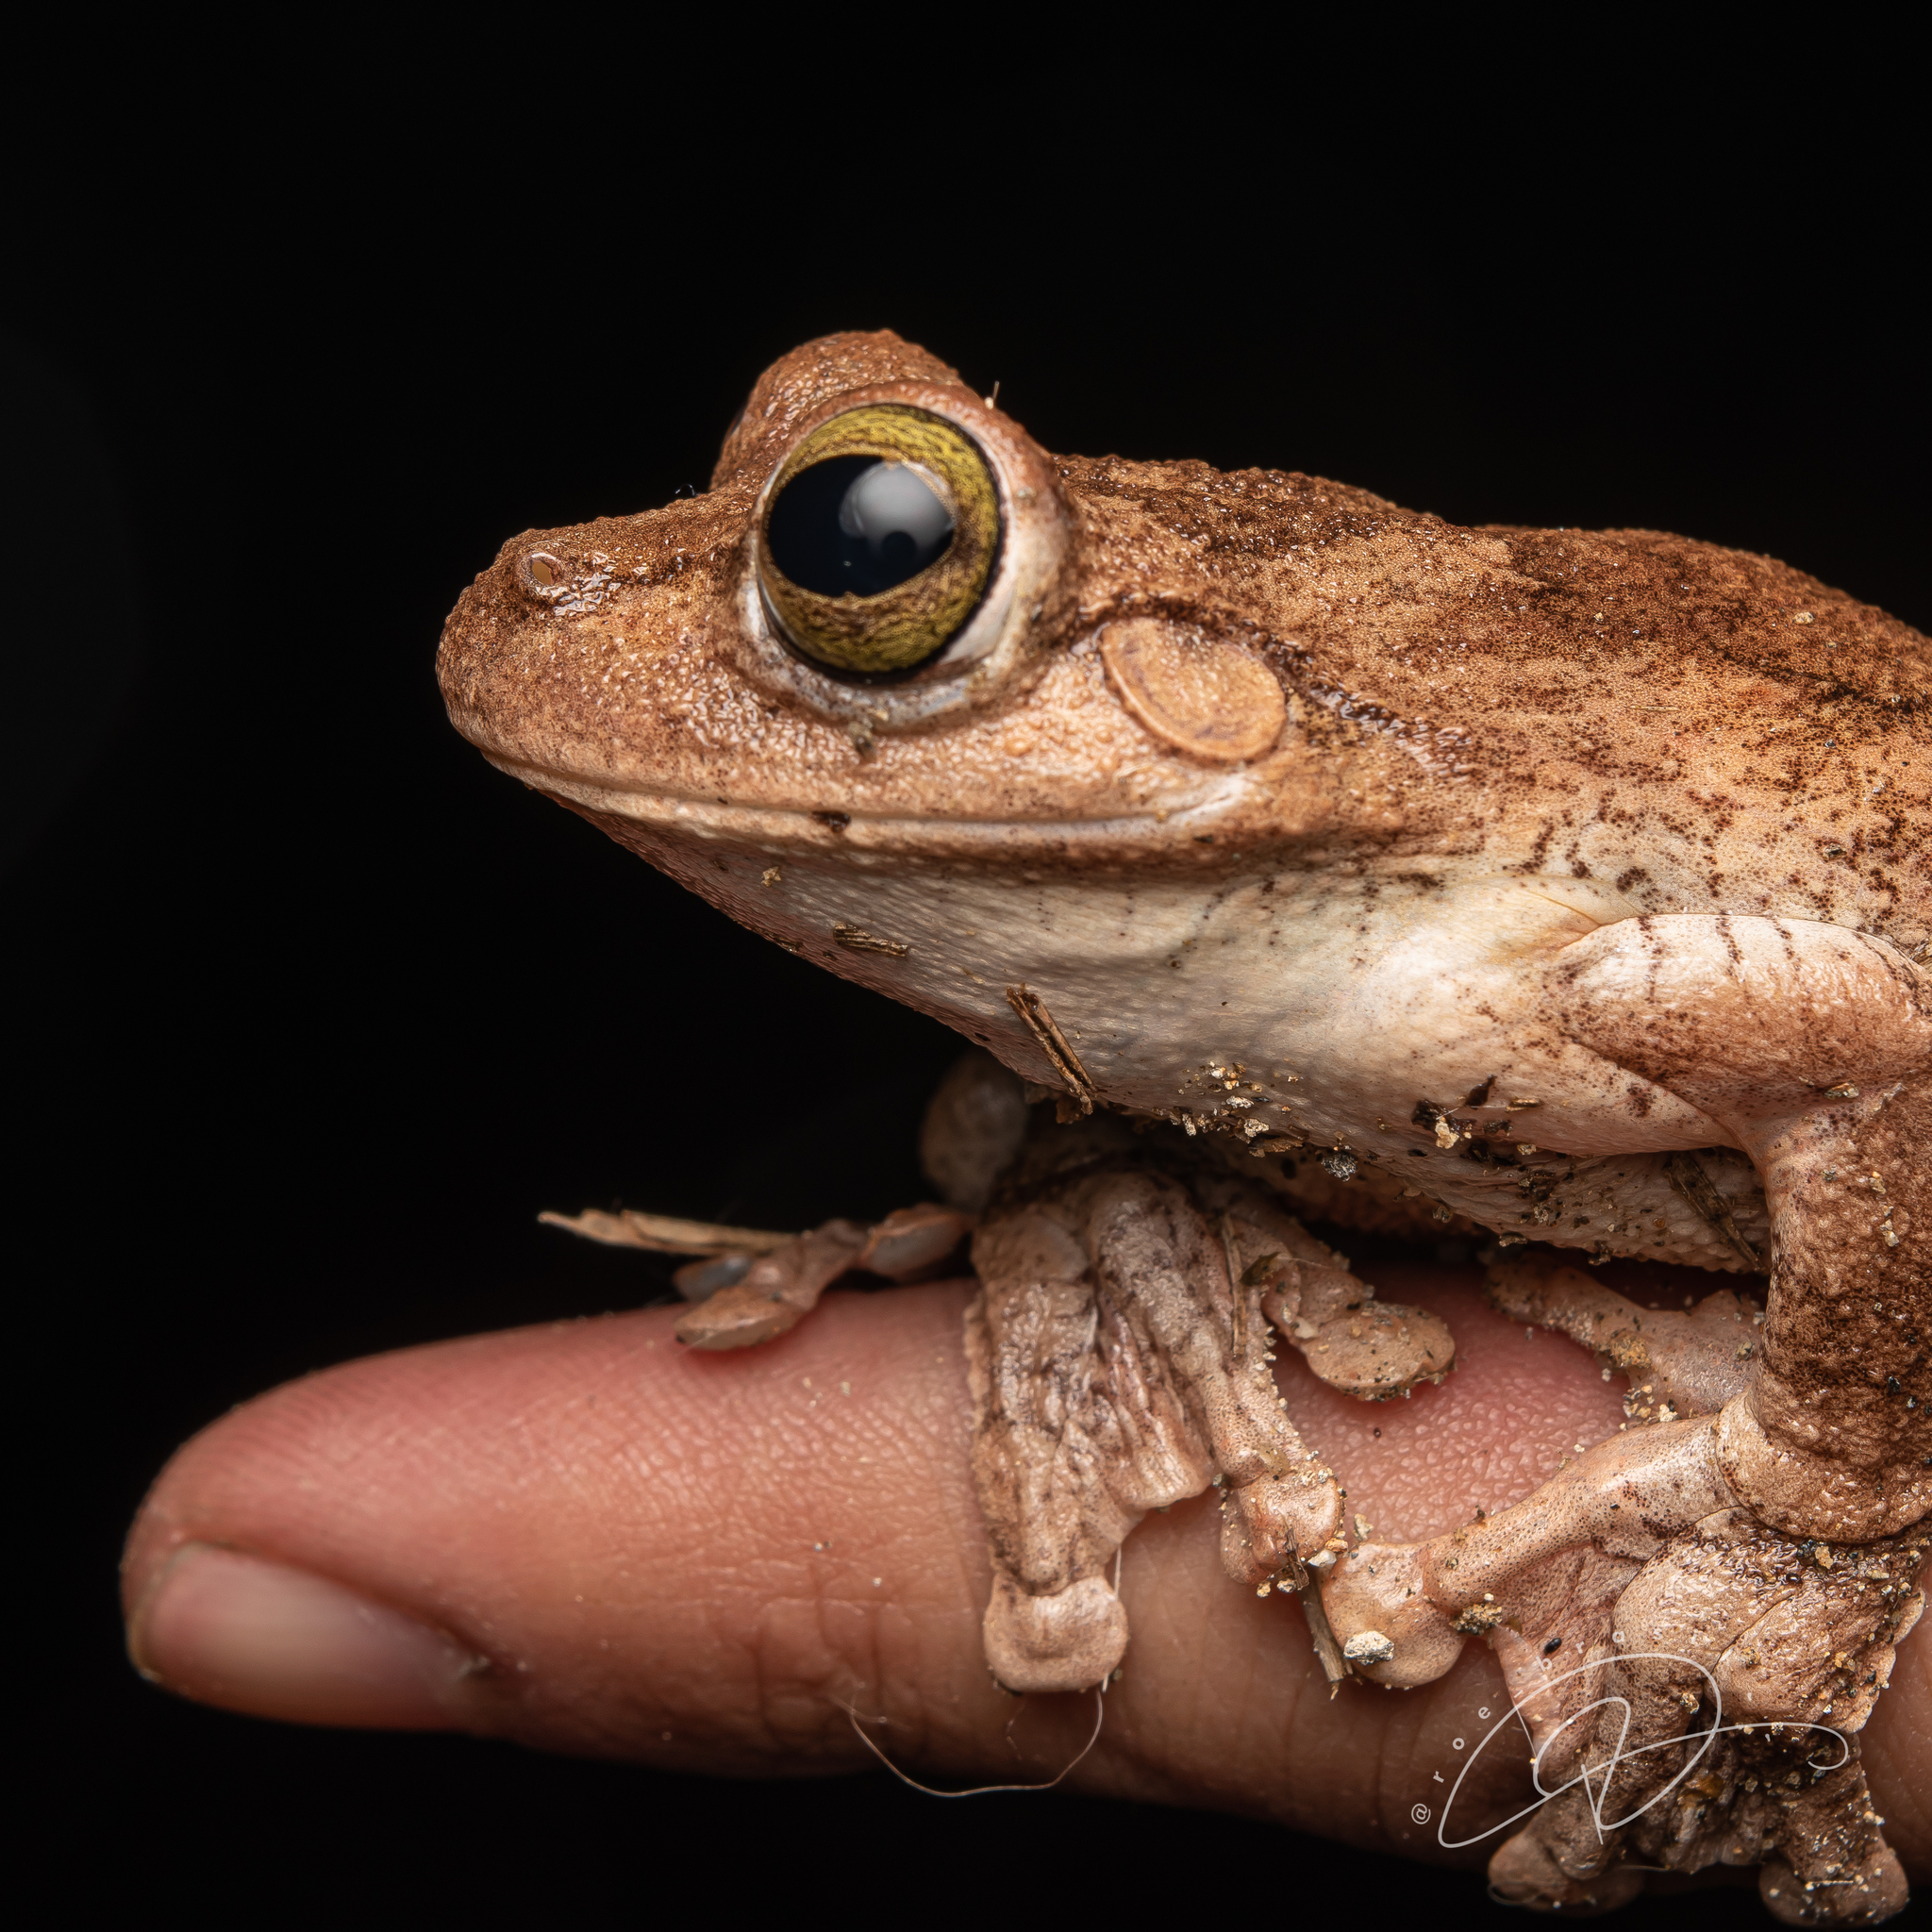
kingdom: Animalia
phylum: Chordata
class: Amphibia
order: Anura
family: Hylidae
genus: Boana
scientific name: Boana pardalis
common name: Leopard treefrog
